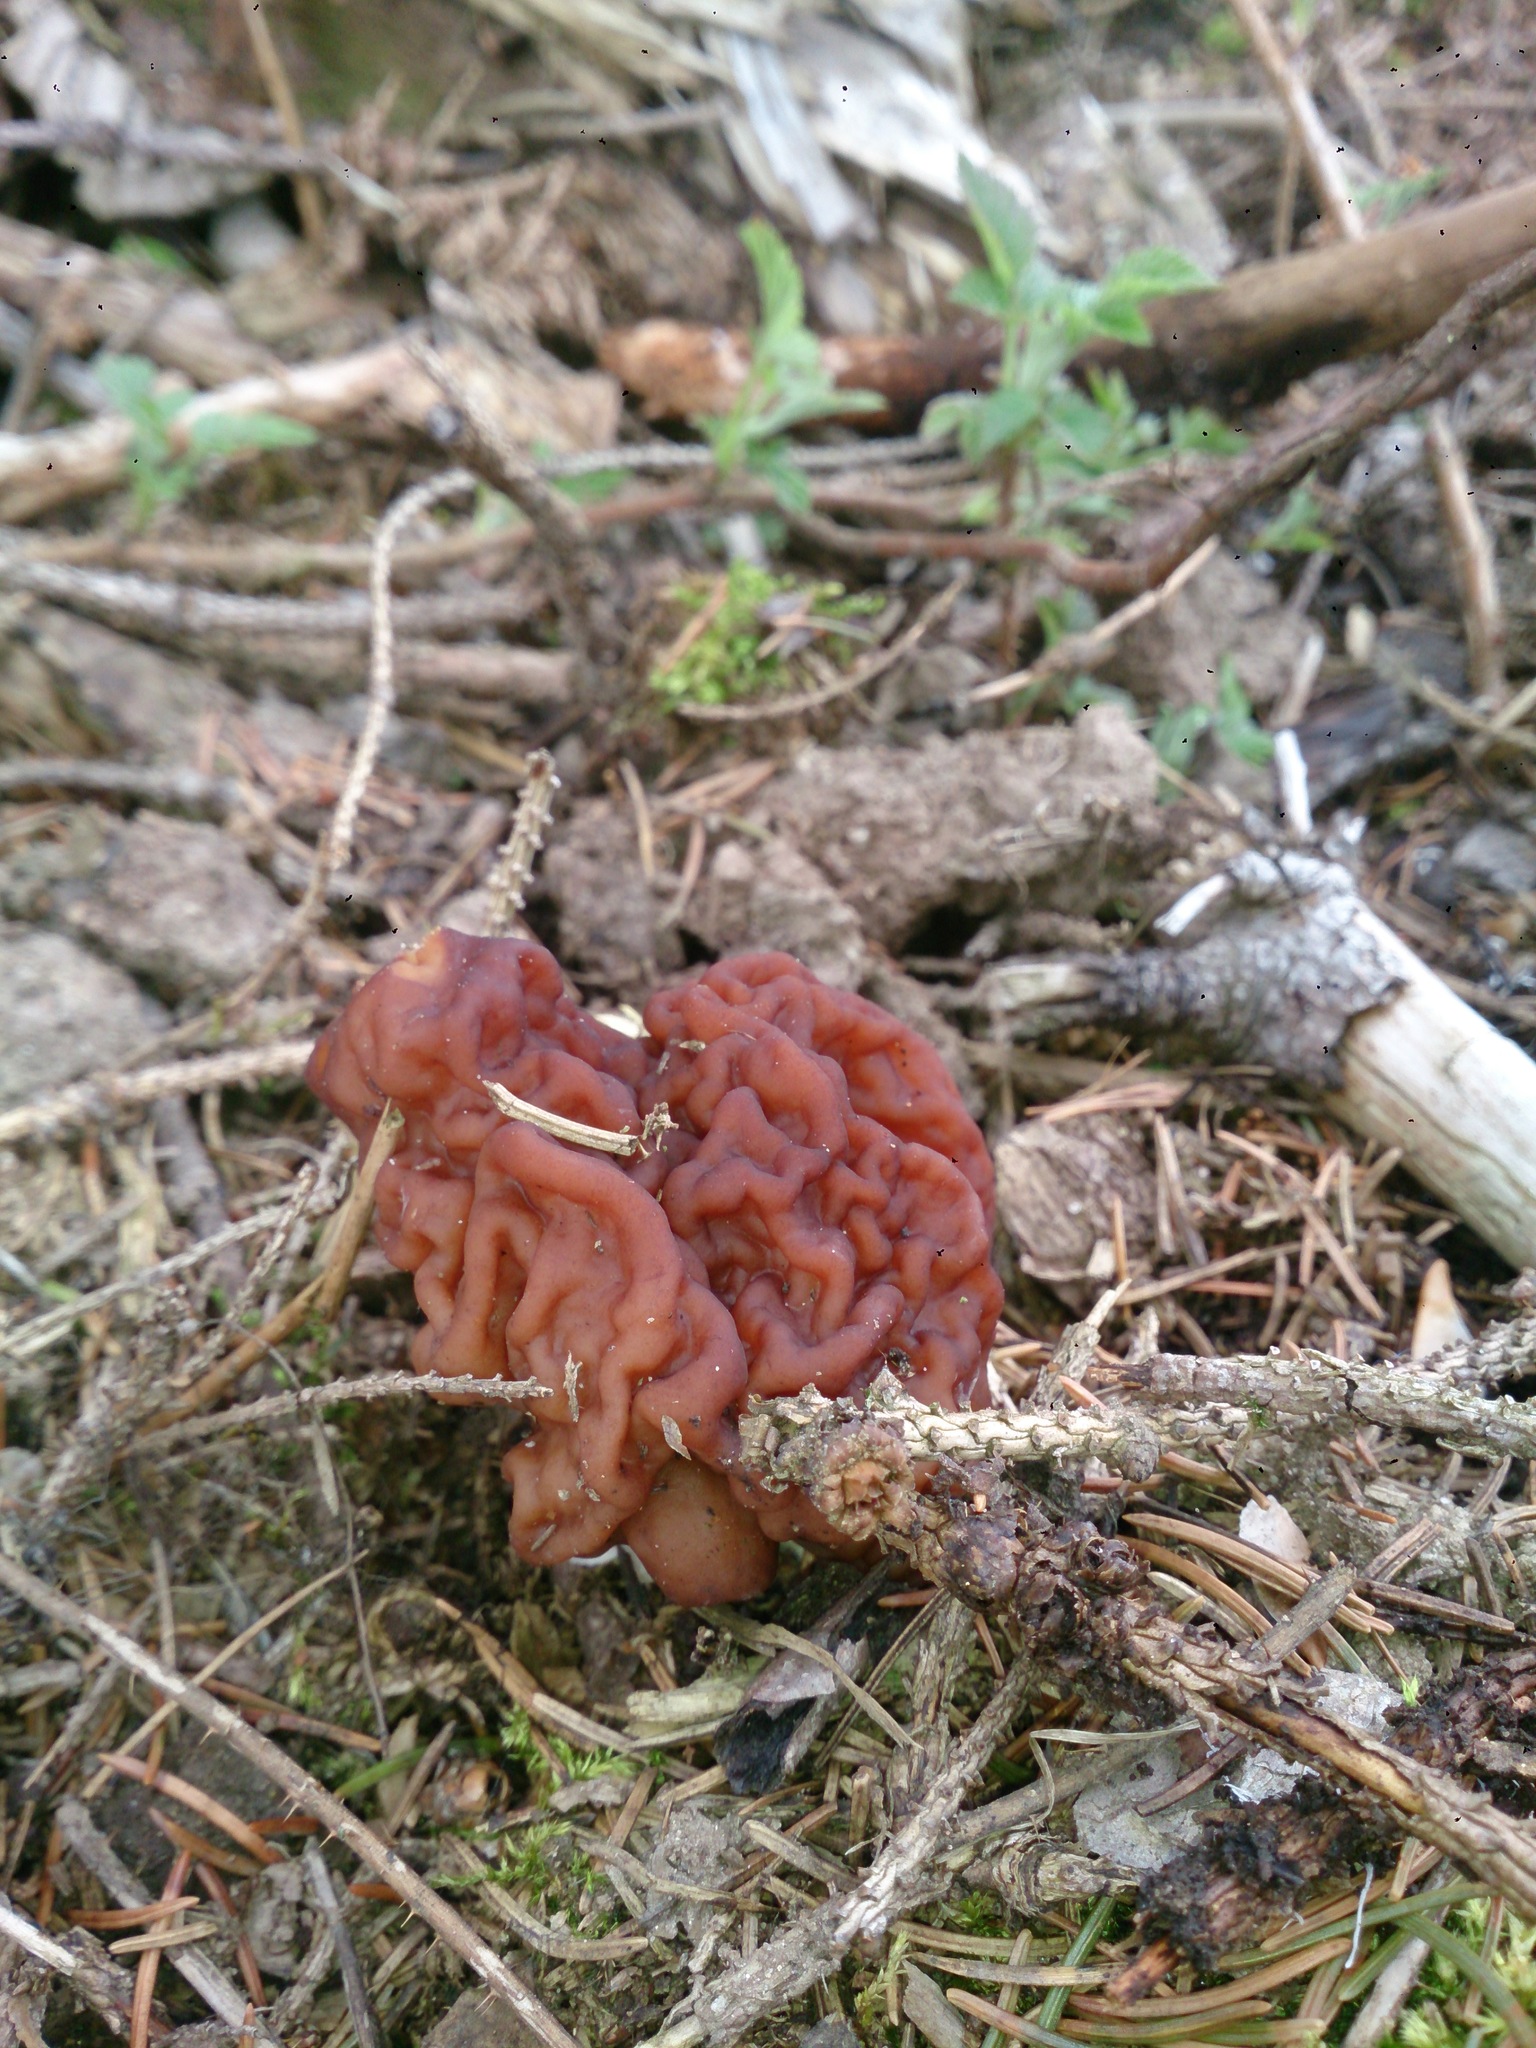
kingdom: Fungi
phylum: Ascomycota
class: Pezizomycetes
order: Pezizales
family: Discinaceae
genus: Gyromitra
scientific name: Gyromitra esculenta
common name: False morel
